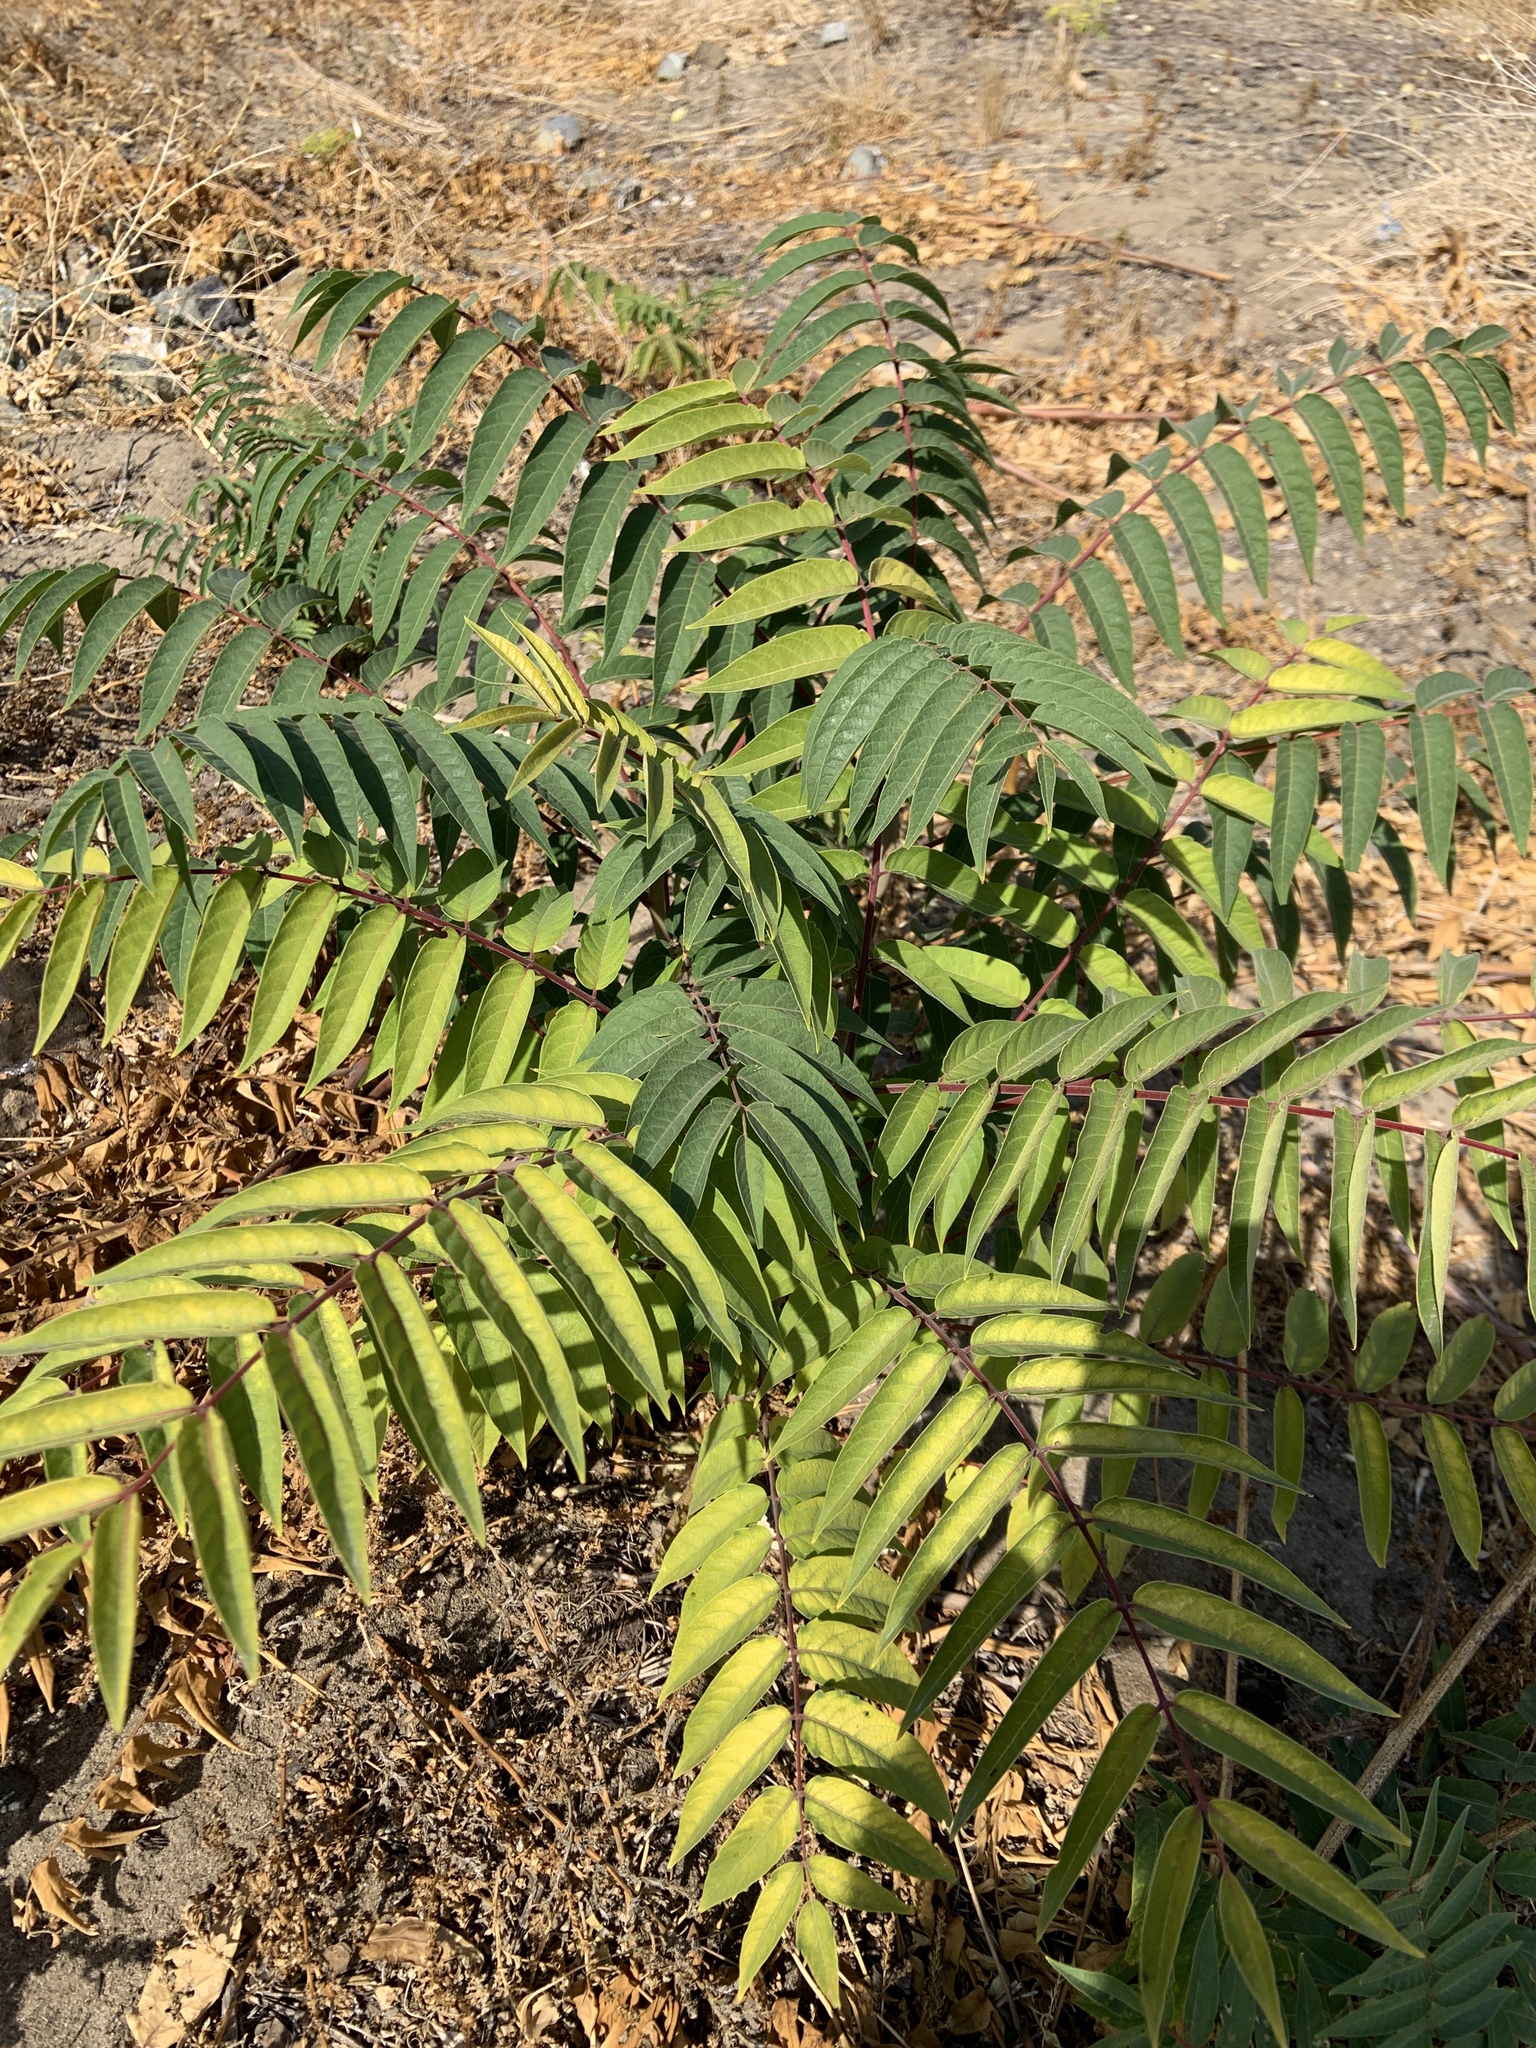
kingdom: Plantae
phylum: Tracheophyta
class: Magnoliopsida
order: Sapindales
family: Simaroubaceae
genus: Ailanthus
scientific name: Ailanthus altissima
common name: Tree-of-heaven
